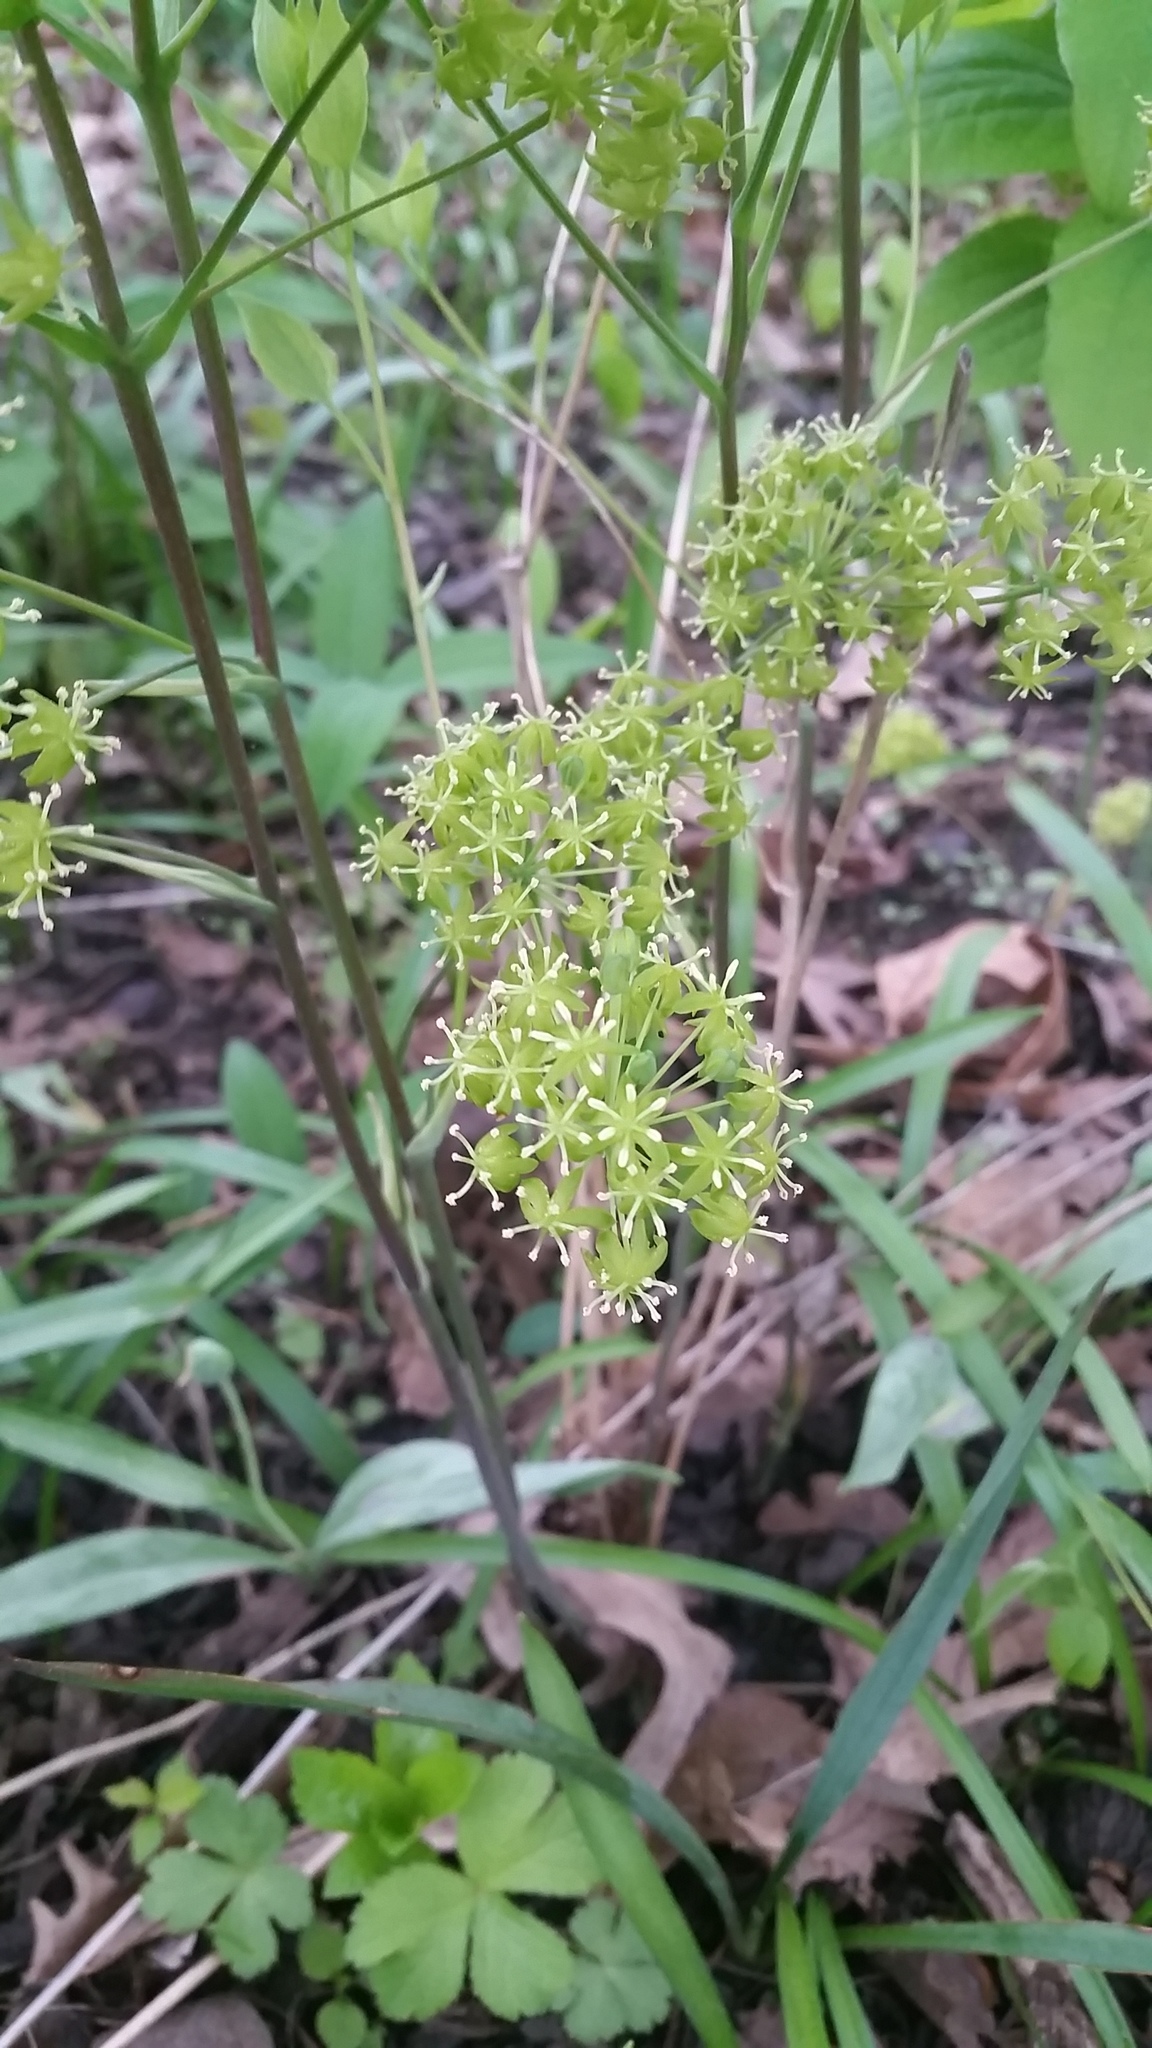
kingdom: Plantae
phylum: Tracheophyta
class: Liliopsida
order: Liliales
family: Smilacaceae
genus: Smilax
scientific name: Smilax ecirrhata
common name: Upright carrionflower
